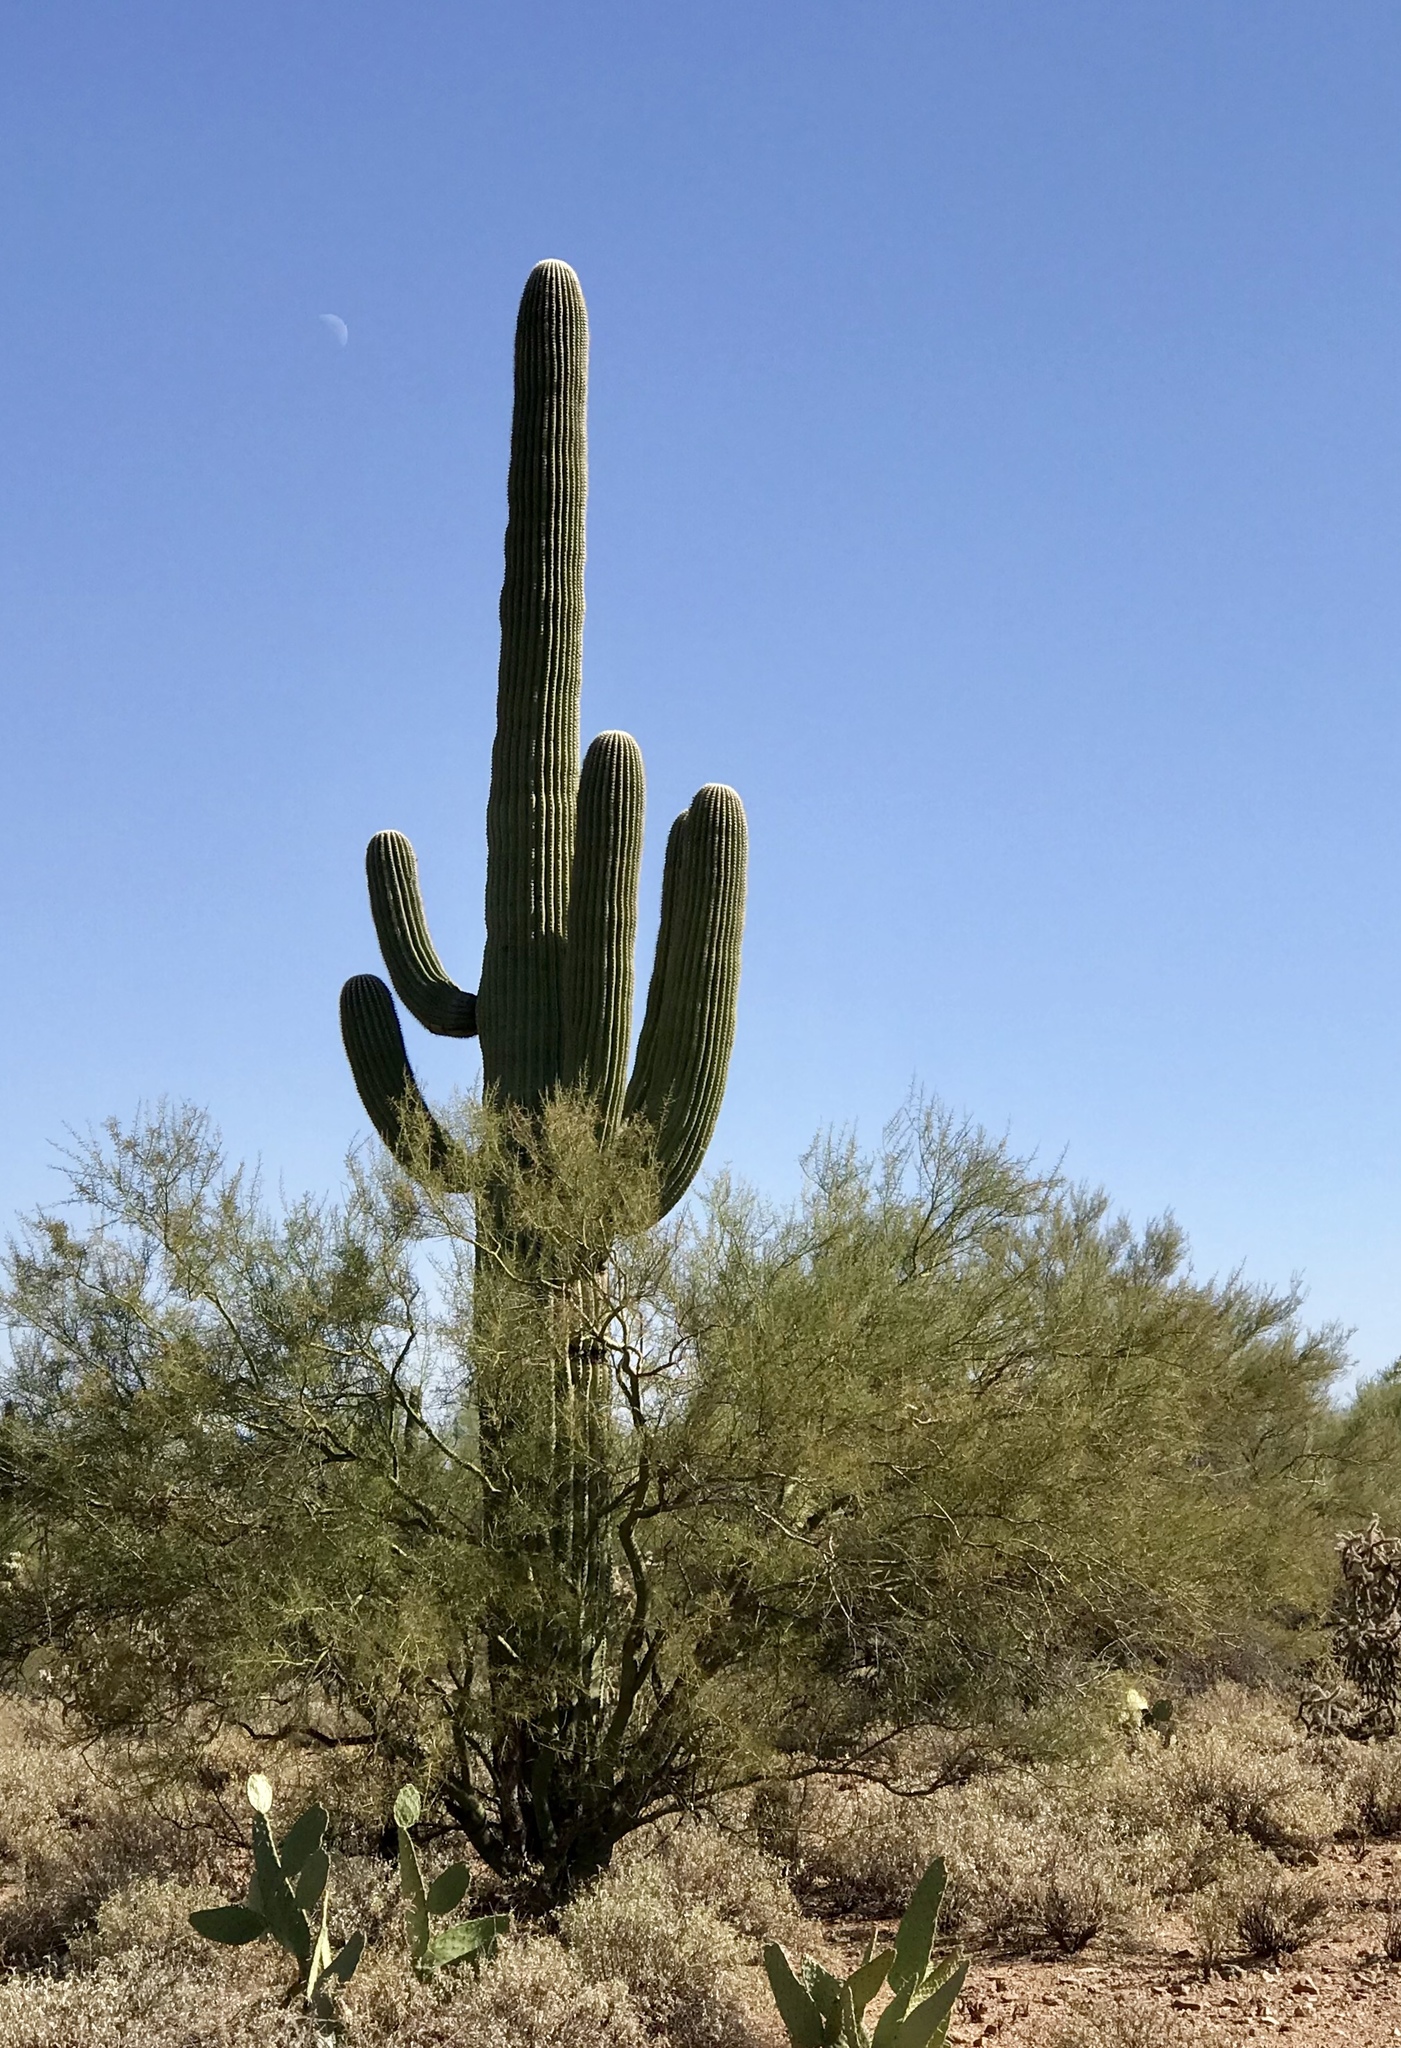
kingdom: Plantae
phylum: Tracheophyta
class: Magnoliopsida
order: Caryophyllales
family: Cactaceae
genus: Carnegiea
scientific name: Carnegiea gigantea
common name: Saguaro
